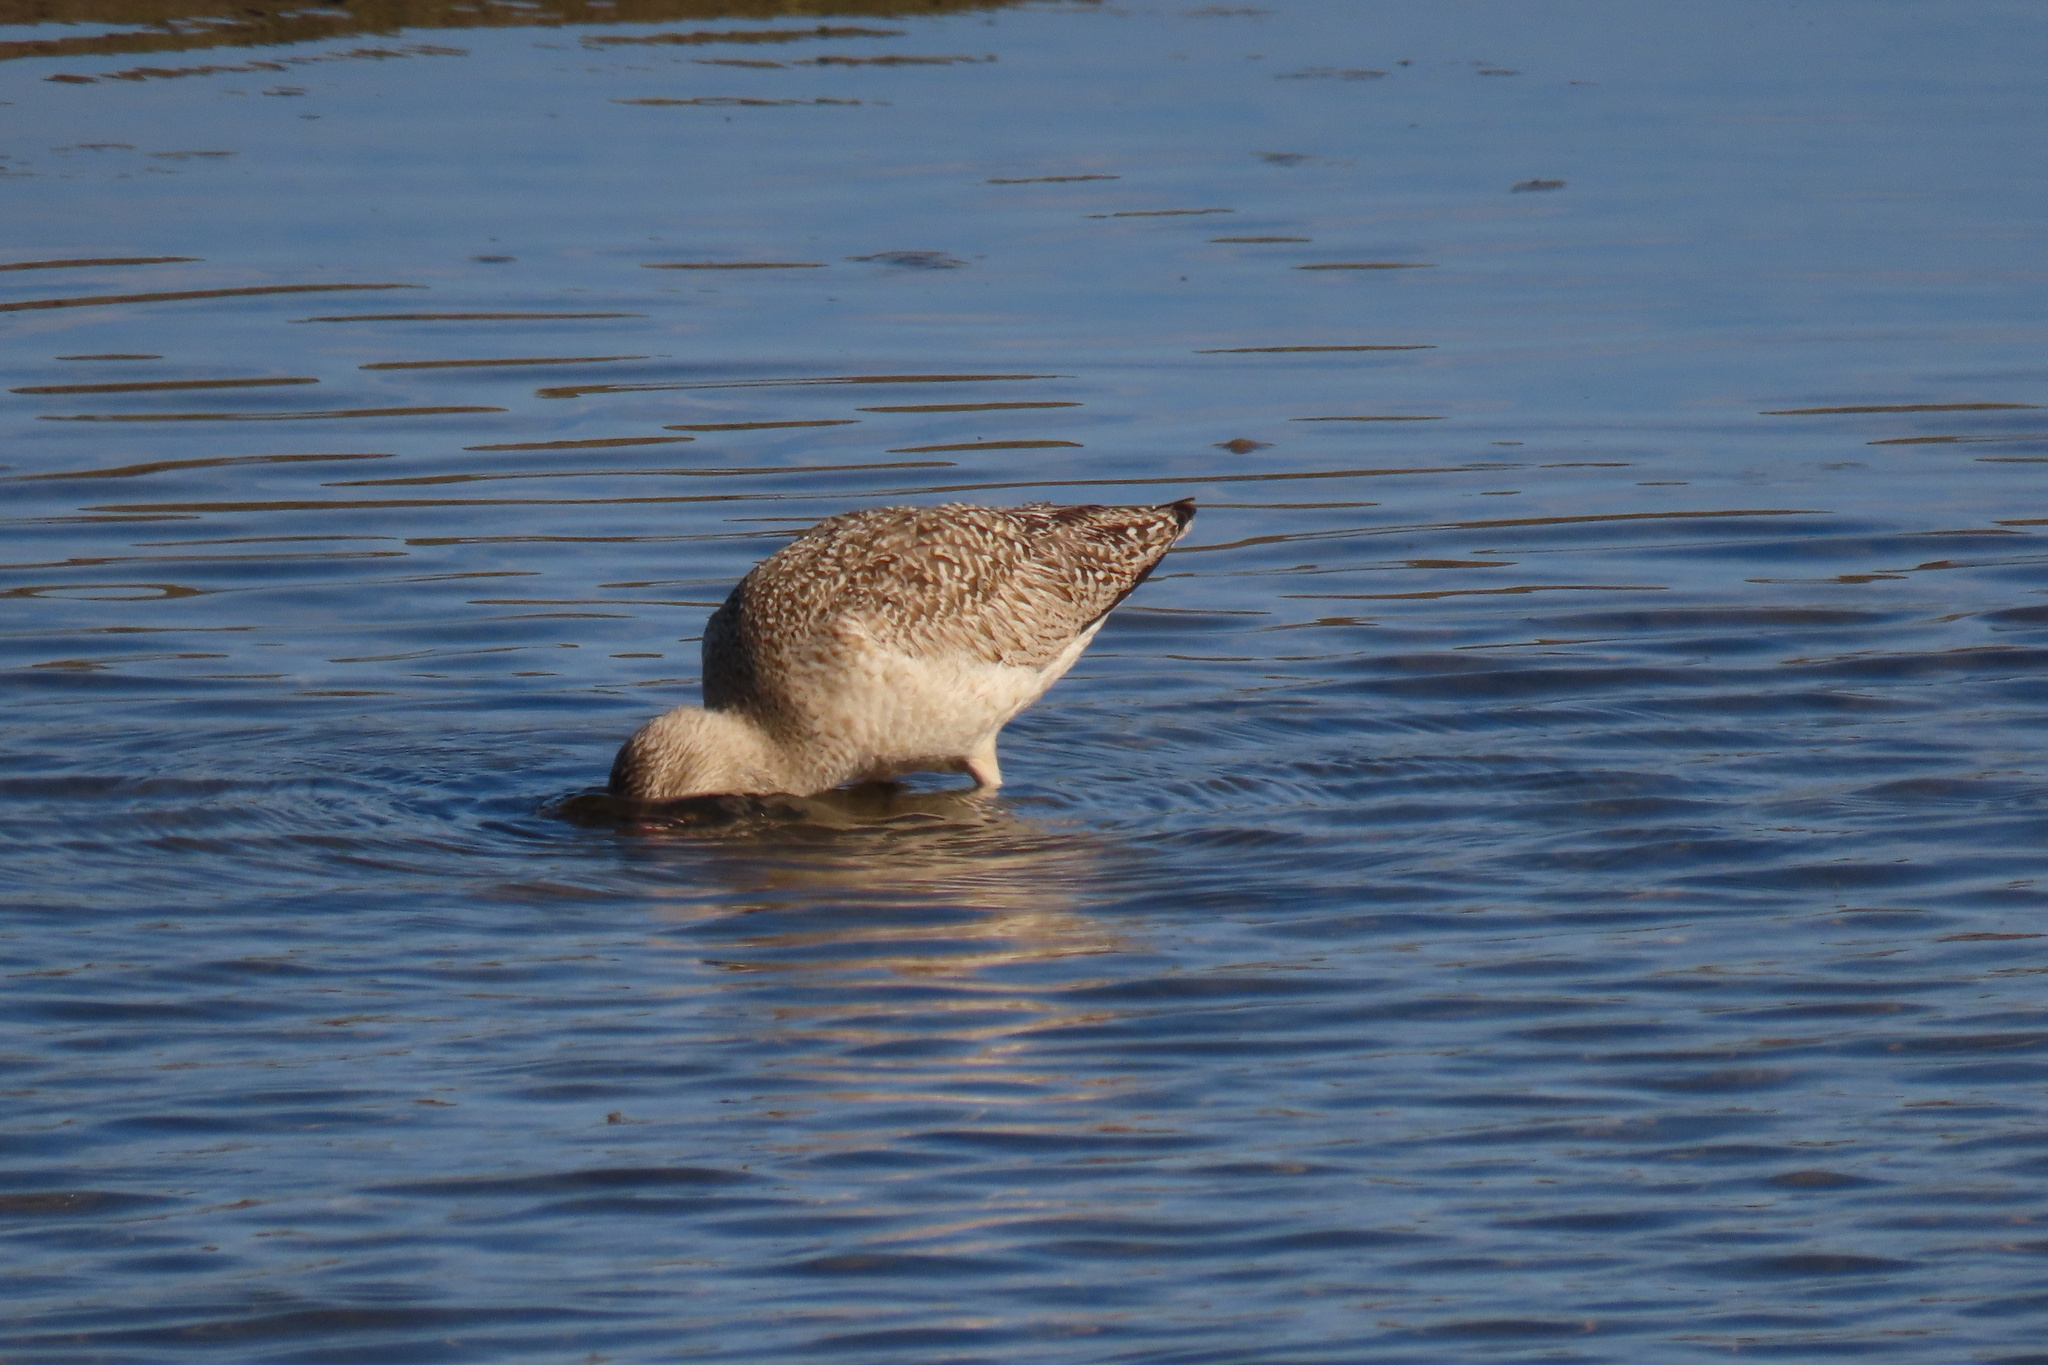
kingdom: Animalia
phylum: Chordata
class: Aves
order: Charadriiformes
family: Scolopacidae
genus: Limosa
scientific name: Limosa fedoa
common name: Marbled godwit
